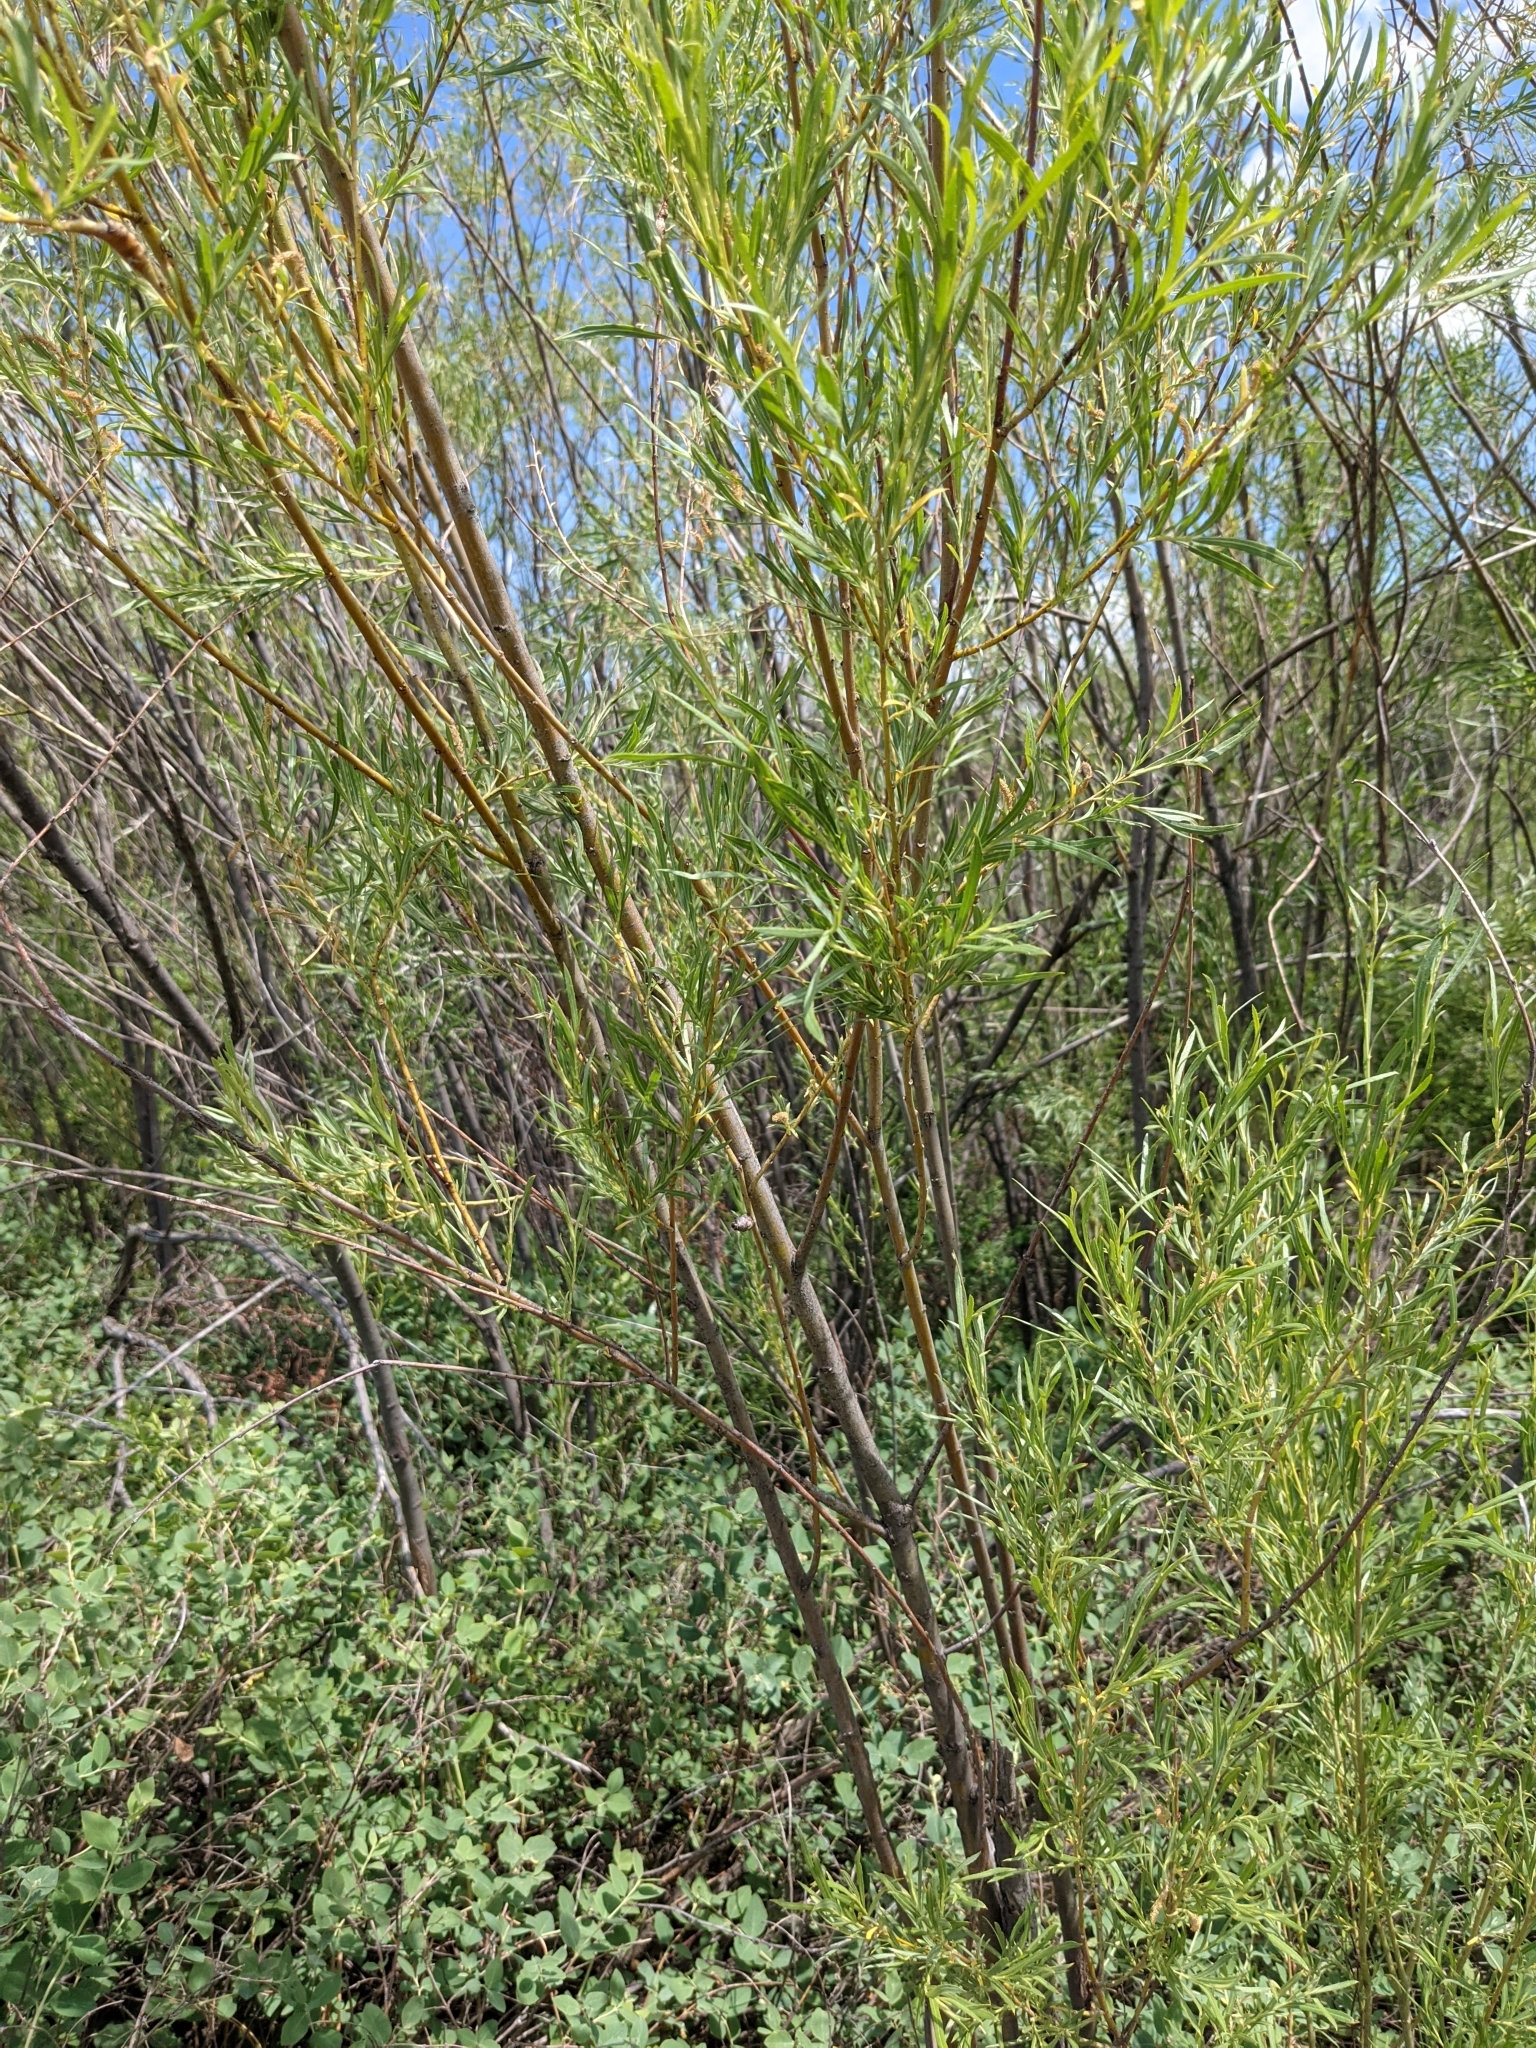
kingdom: Plantae
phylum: Tracheophyta
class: Magnoliopsida
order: Malpighiales
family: Salicaceae
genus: Salix
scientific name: Salix interior
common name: Sandbar willow
